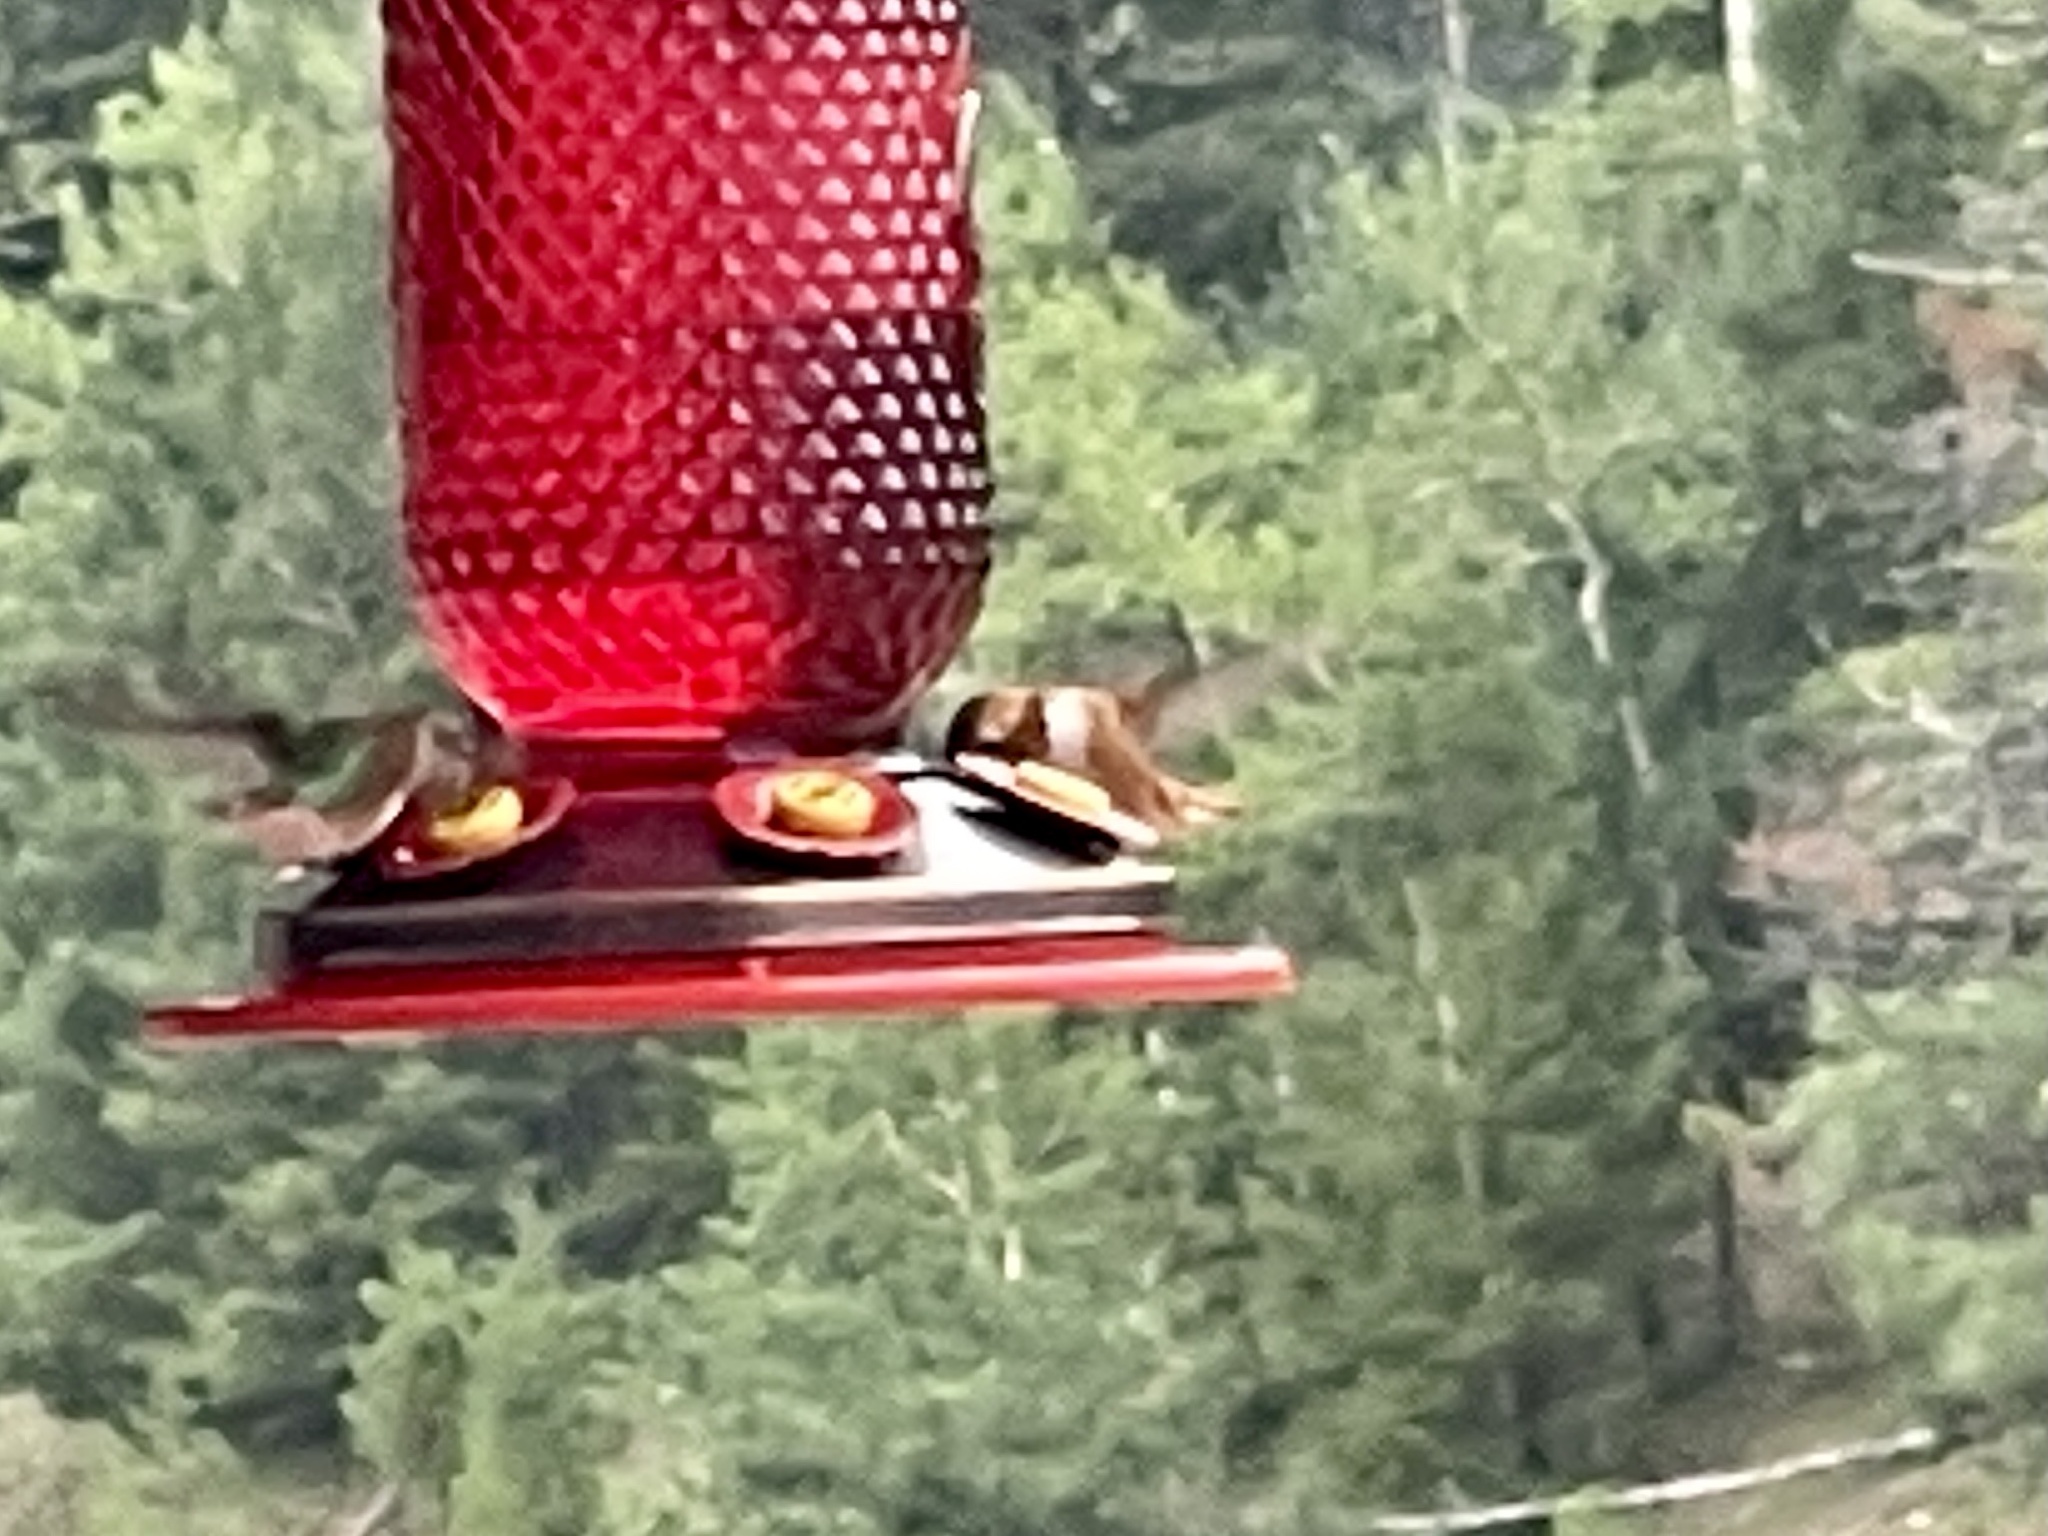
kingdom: Animalia
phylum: Chordata
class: Aves
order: Apodiformes
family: Trochilidae
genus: Selasphorus
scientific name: Selasphorus rufus
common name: Rufous hummingbird
